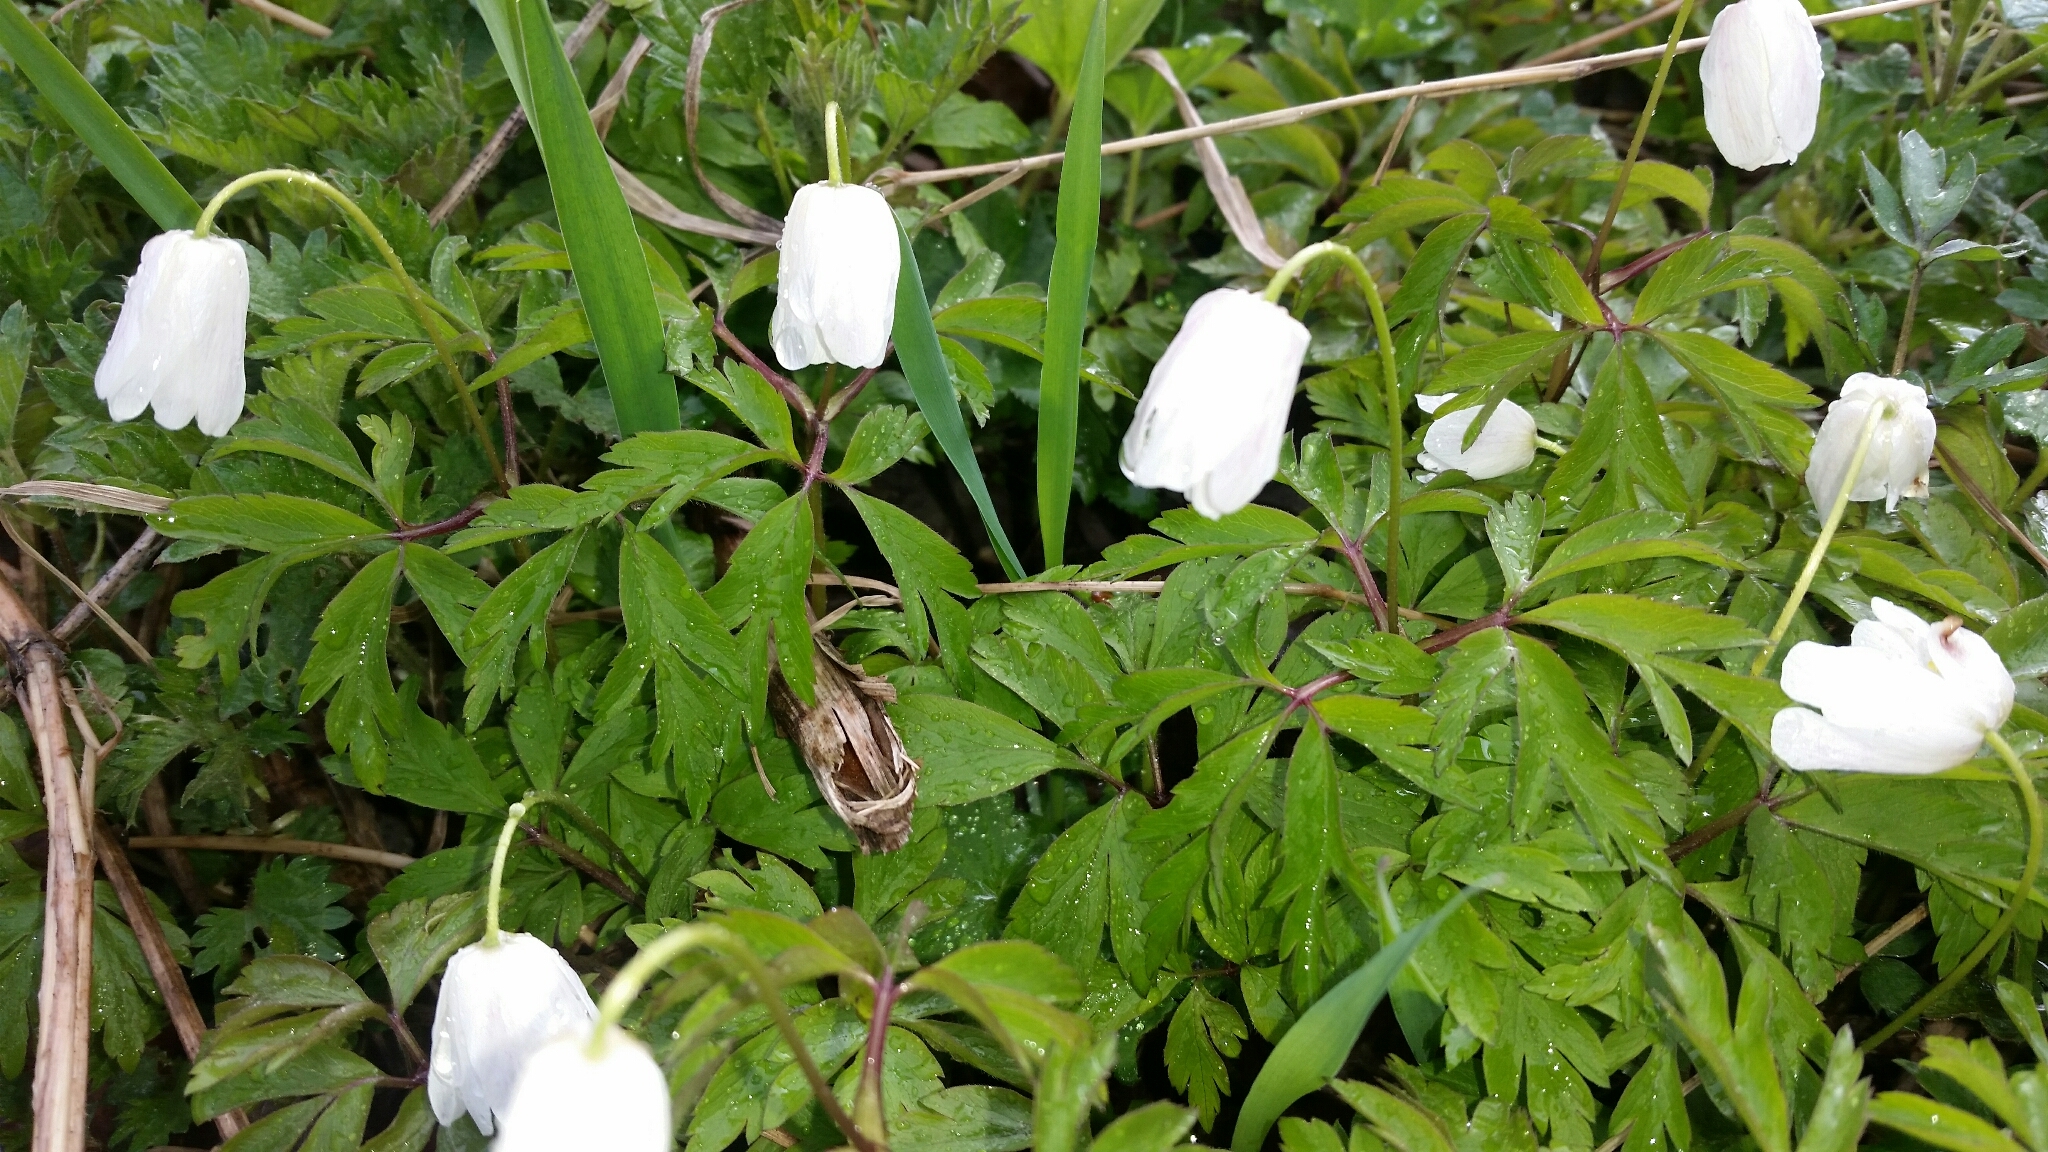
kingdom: Plantae
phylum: Tracheophyta
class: Magnoliopsida
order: Ranunculales
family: Ranunculaceae
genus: Anemone
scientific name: Anemone nemorosa
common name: Wood anemone
